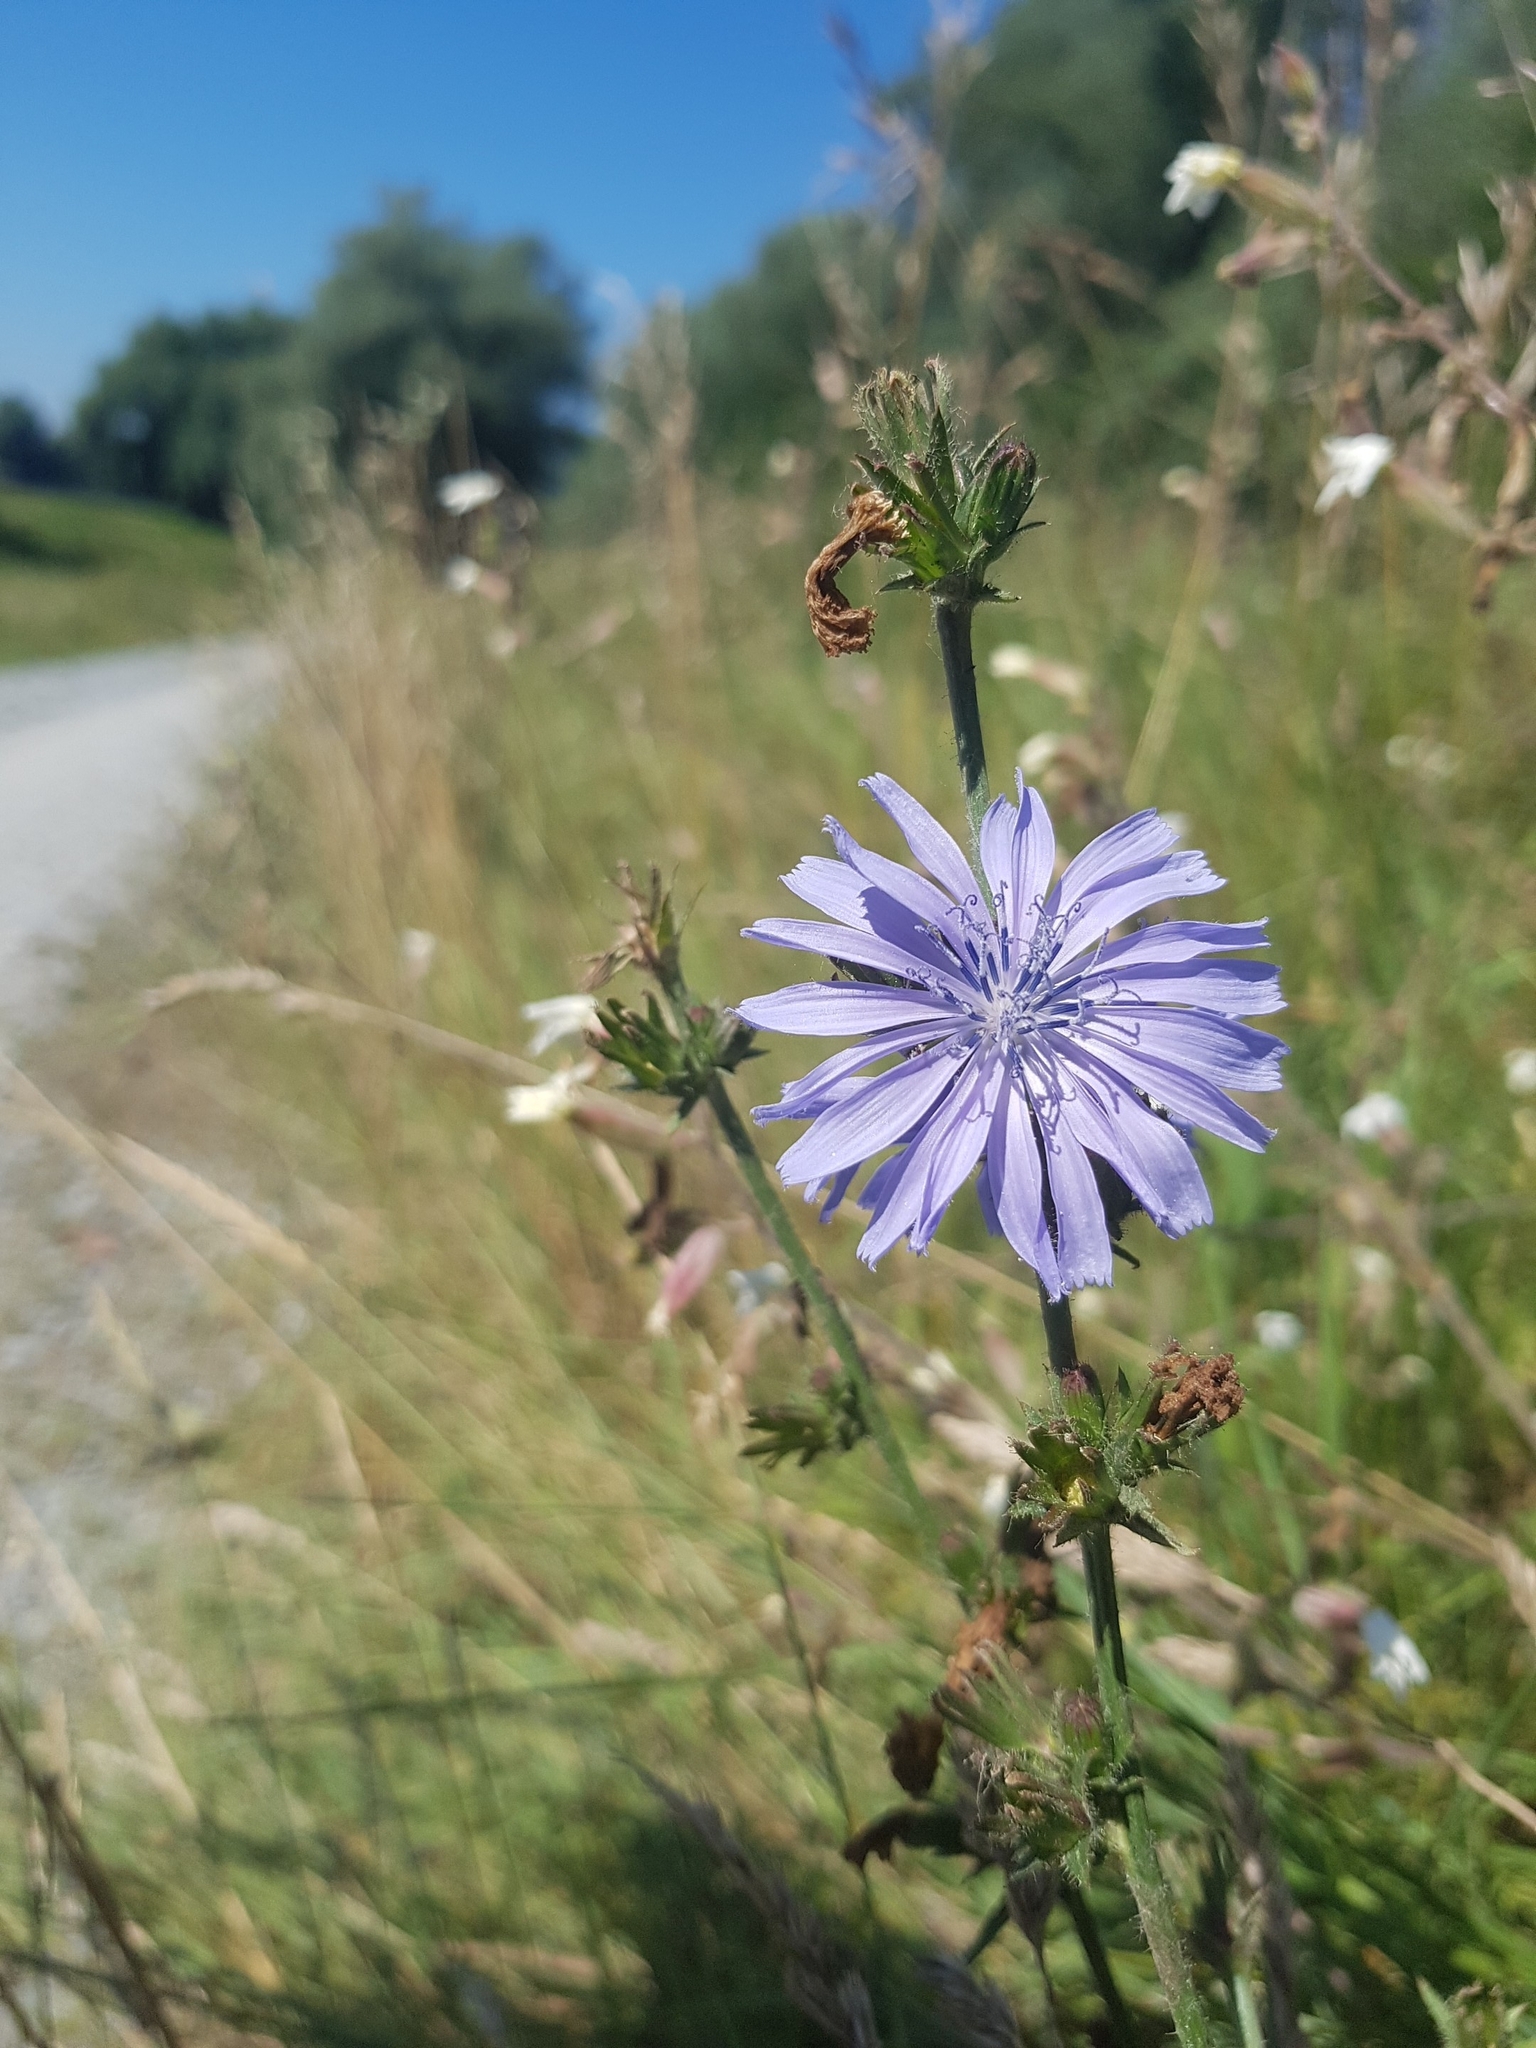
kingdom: Plantae
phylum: Tracheophyta
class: Magnoliopsida
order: Asterales
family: Asteraceae
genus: Cichorium
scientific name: Cichorium intybus
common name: Chicory
